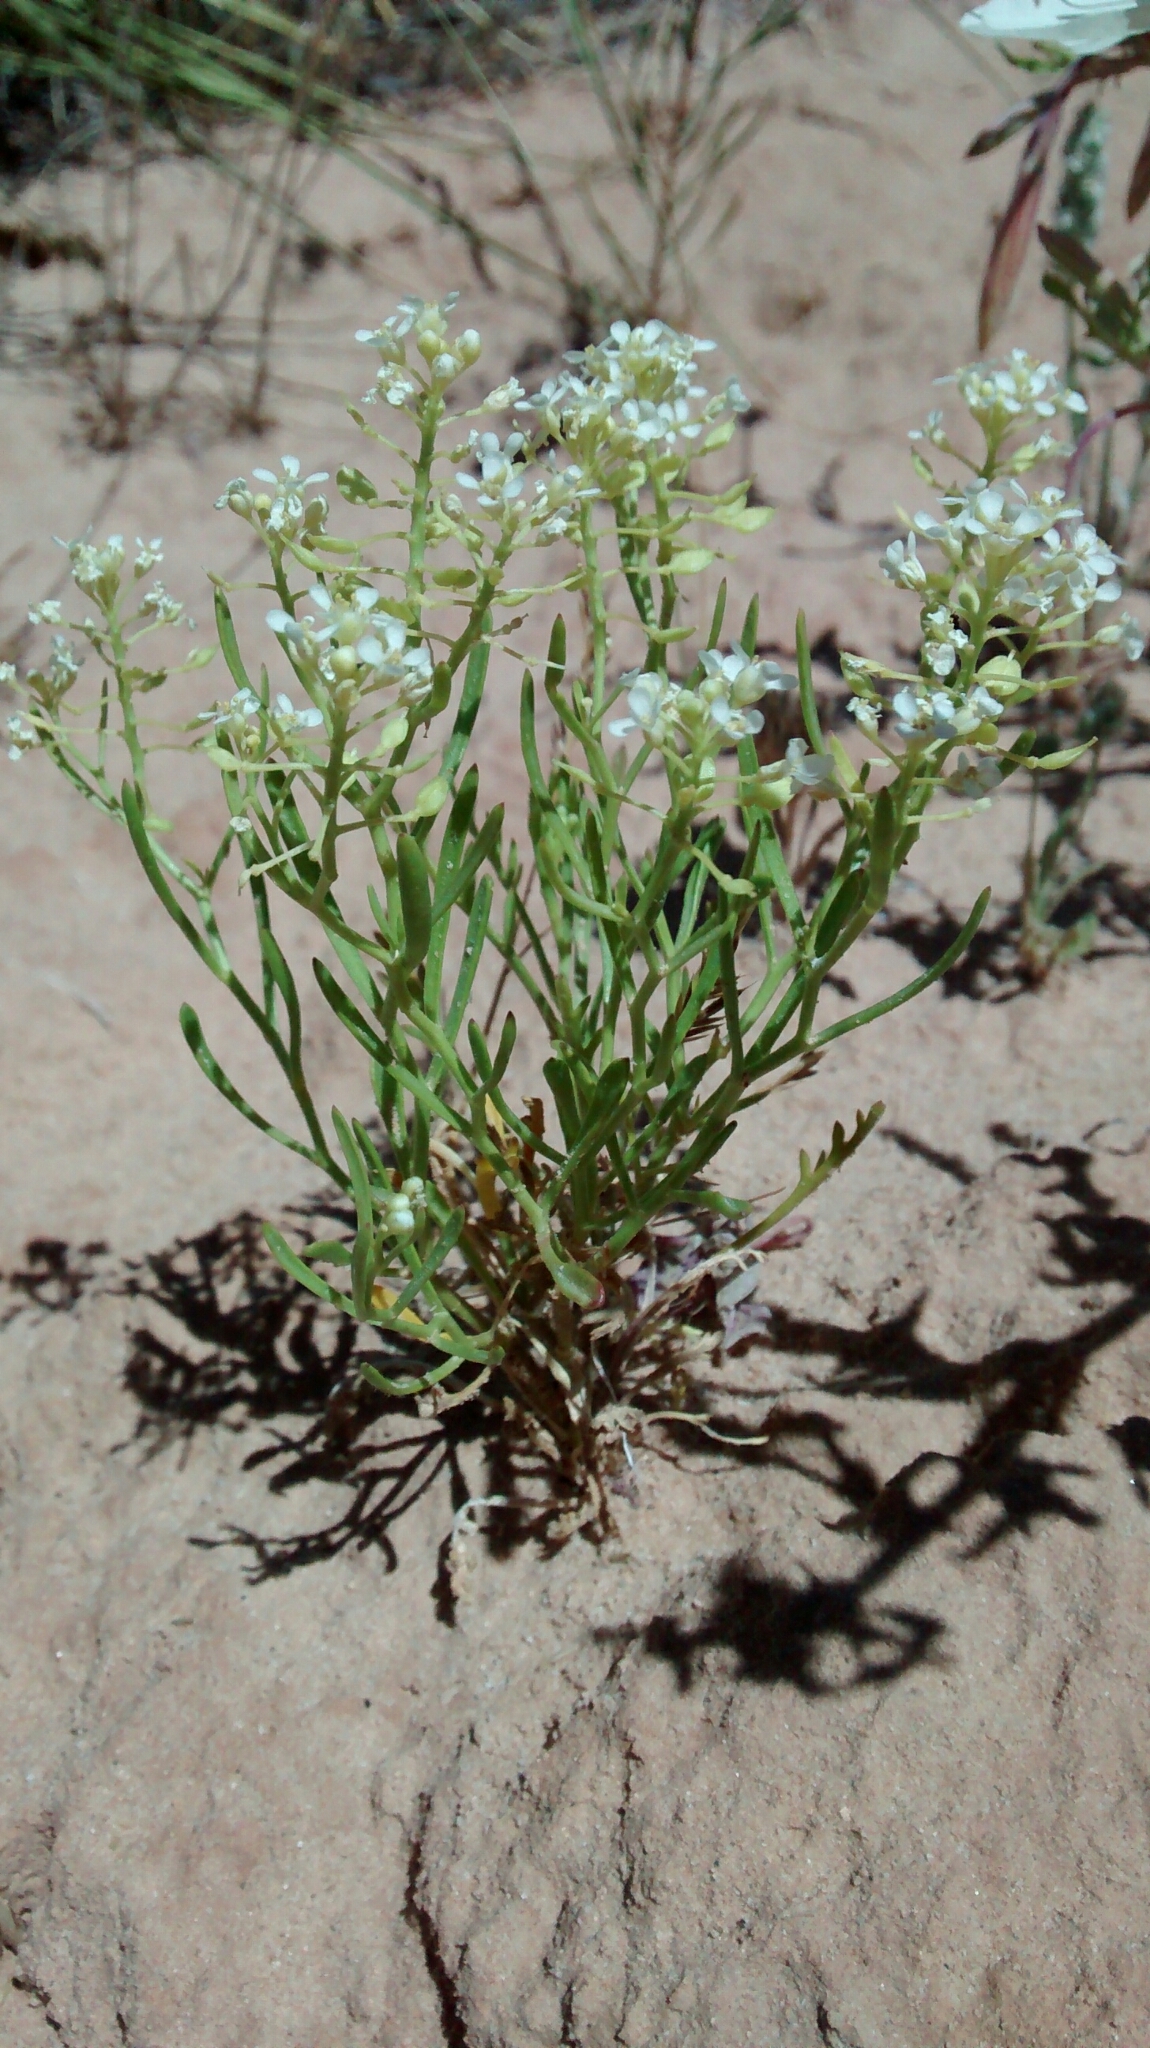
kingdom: Plantae
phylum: Tracheophyta
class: Magnoliopsida
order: Brassicales
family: Brassicaceae
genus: Lepidium
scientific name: Lepidium montanum
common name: Mountain pepperplant
